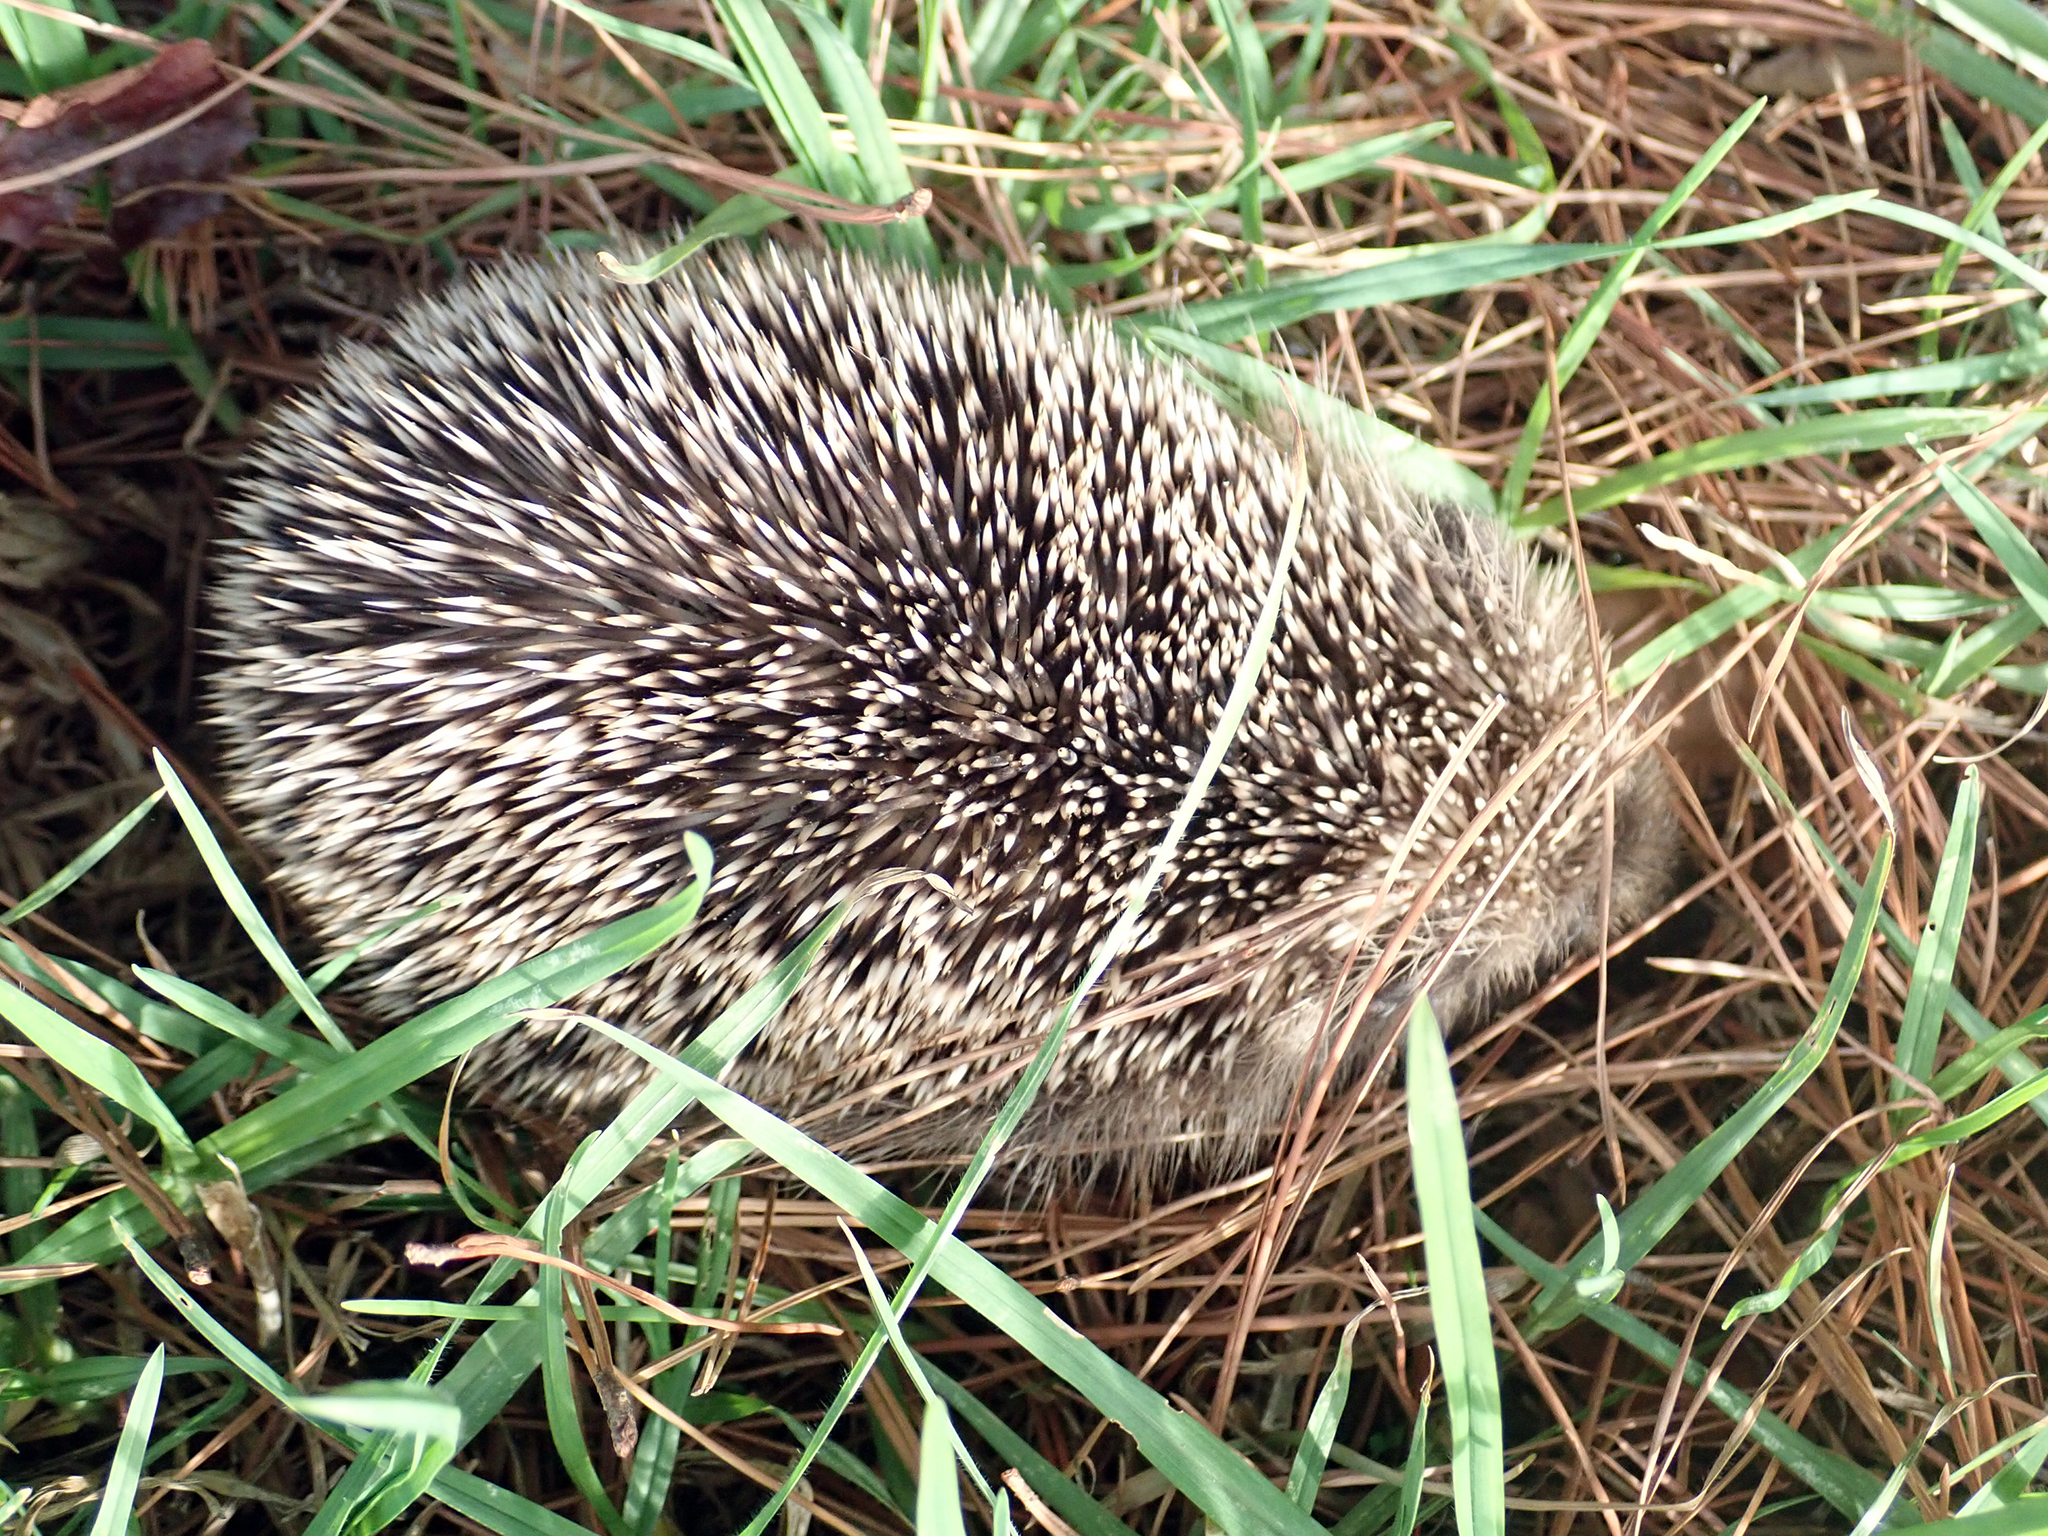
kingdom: Animalia
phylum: Chordata
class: Mammalia
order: Erinaceomorpha
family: Erinaceidae
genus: Erinaceus
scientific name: Erinaceus europaeus
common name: West european hedgehog
